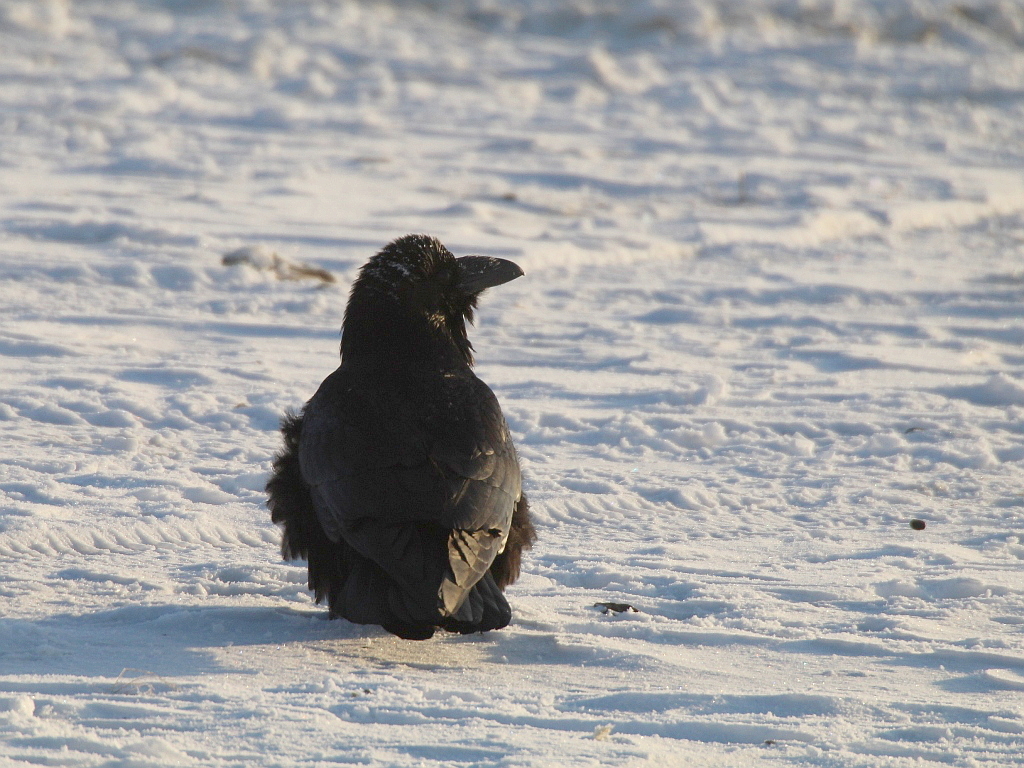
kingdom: Animalia
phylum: Chordata
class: Aves
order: Passeriformes
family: Corvidae
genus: Corvus
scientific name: Corvus corax
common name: Common raven
